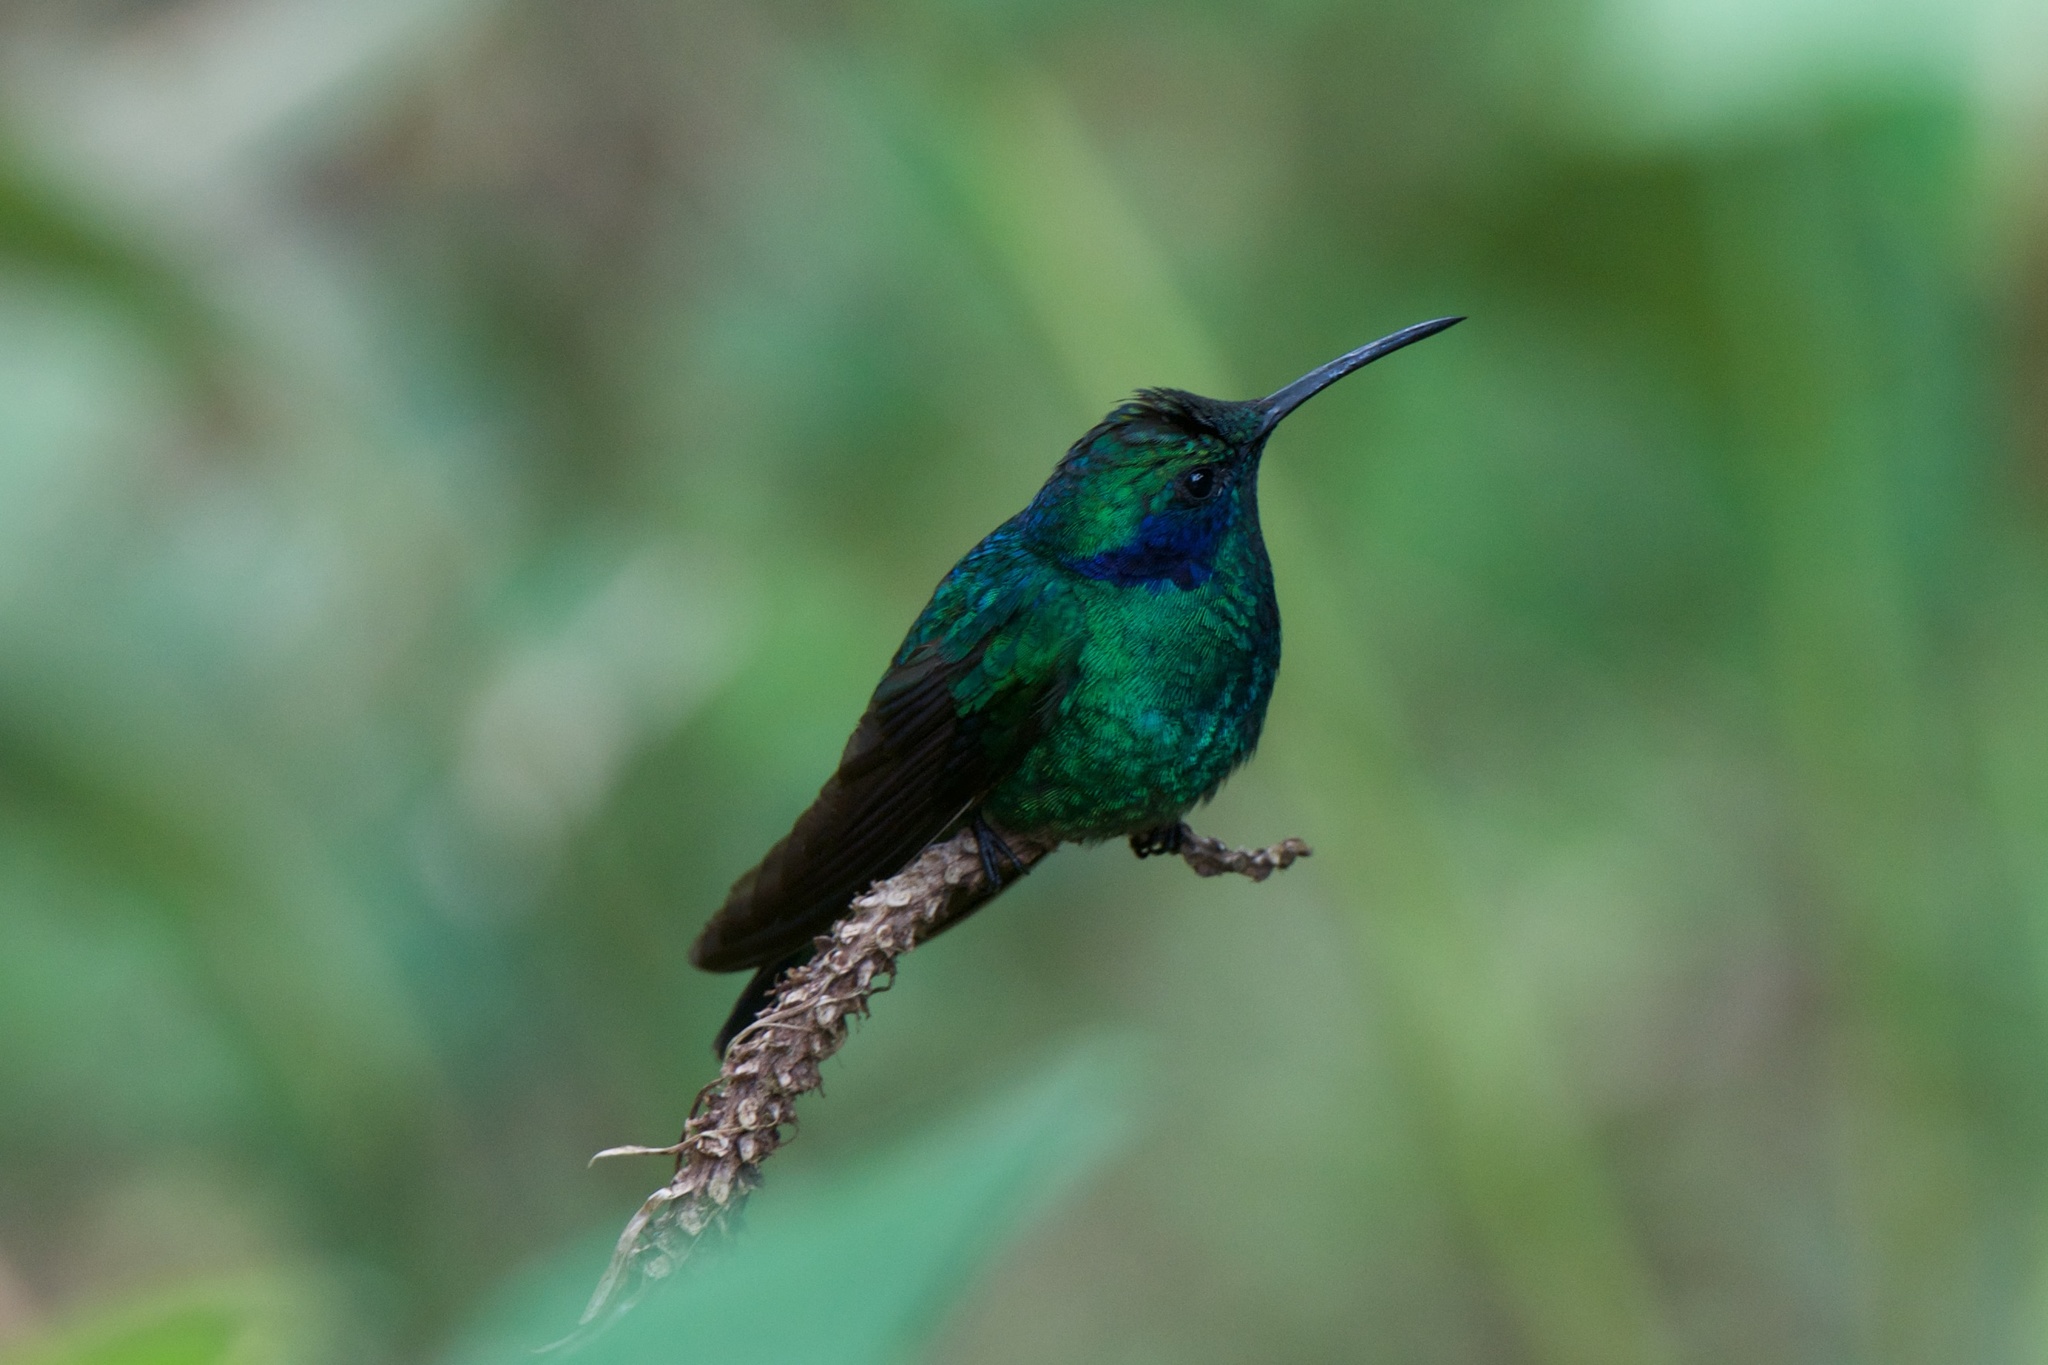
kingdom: Animalia
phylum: Chordata
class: Aves
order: Apodiformes
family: Trochilidae
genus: Colibri
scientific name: Colibri cyanotus
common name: Lesser violetear
